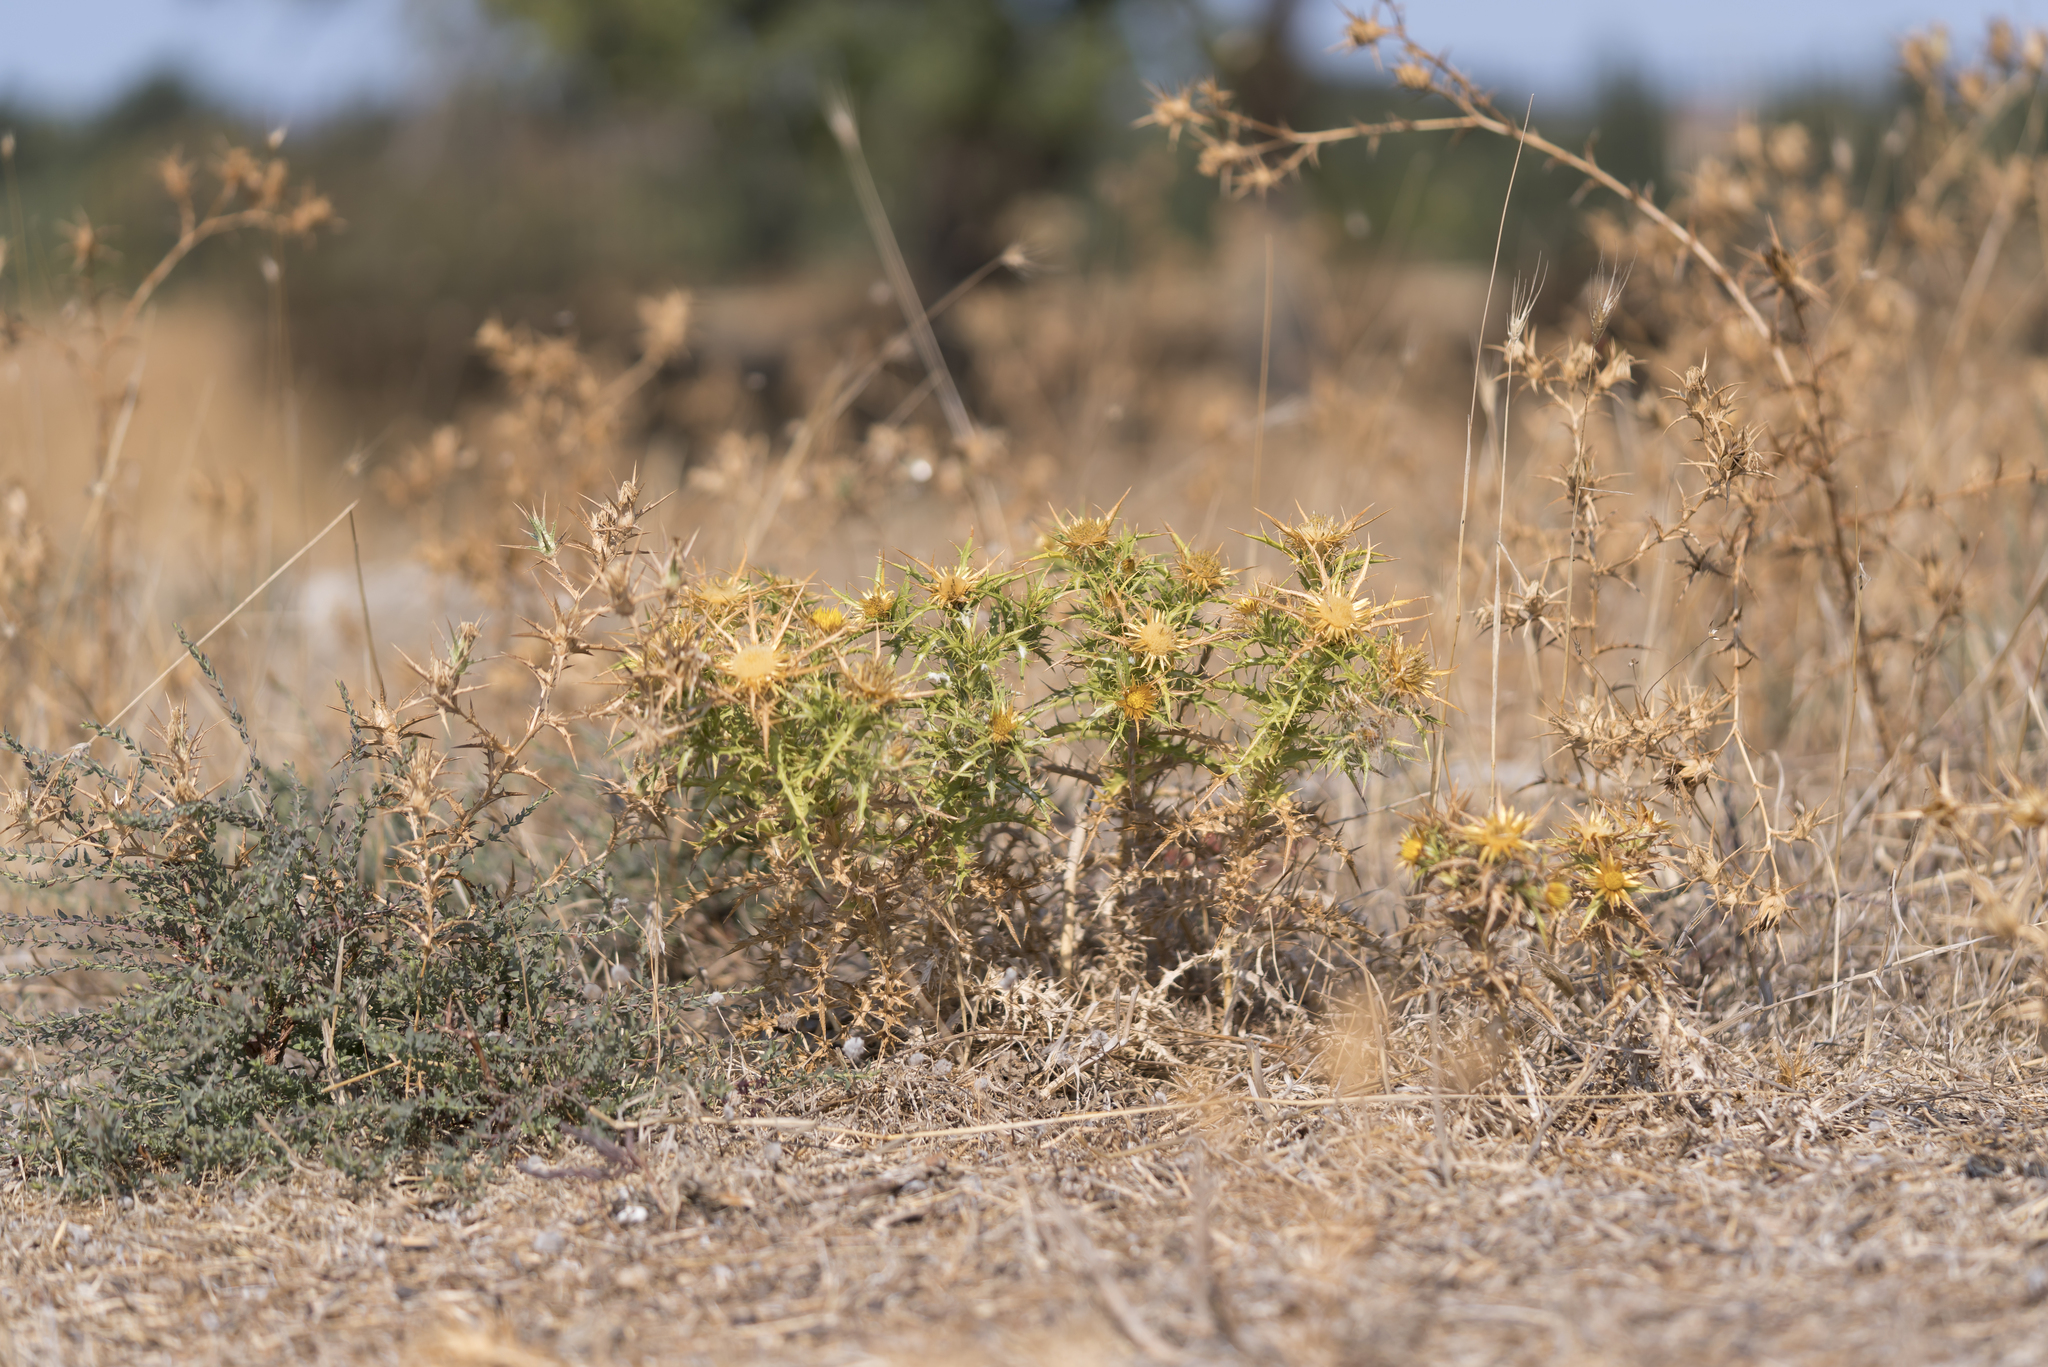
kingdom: Plantae
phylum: Tracheophyta
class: Magnoliopsida
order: Asterales
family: Asteraceae
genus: Carlina
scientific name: Carlina graeca
